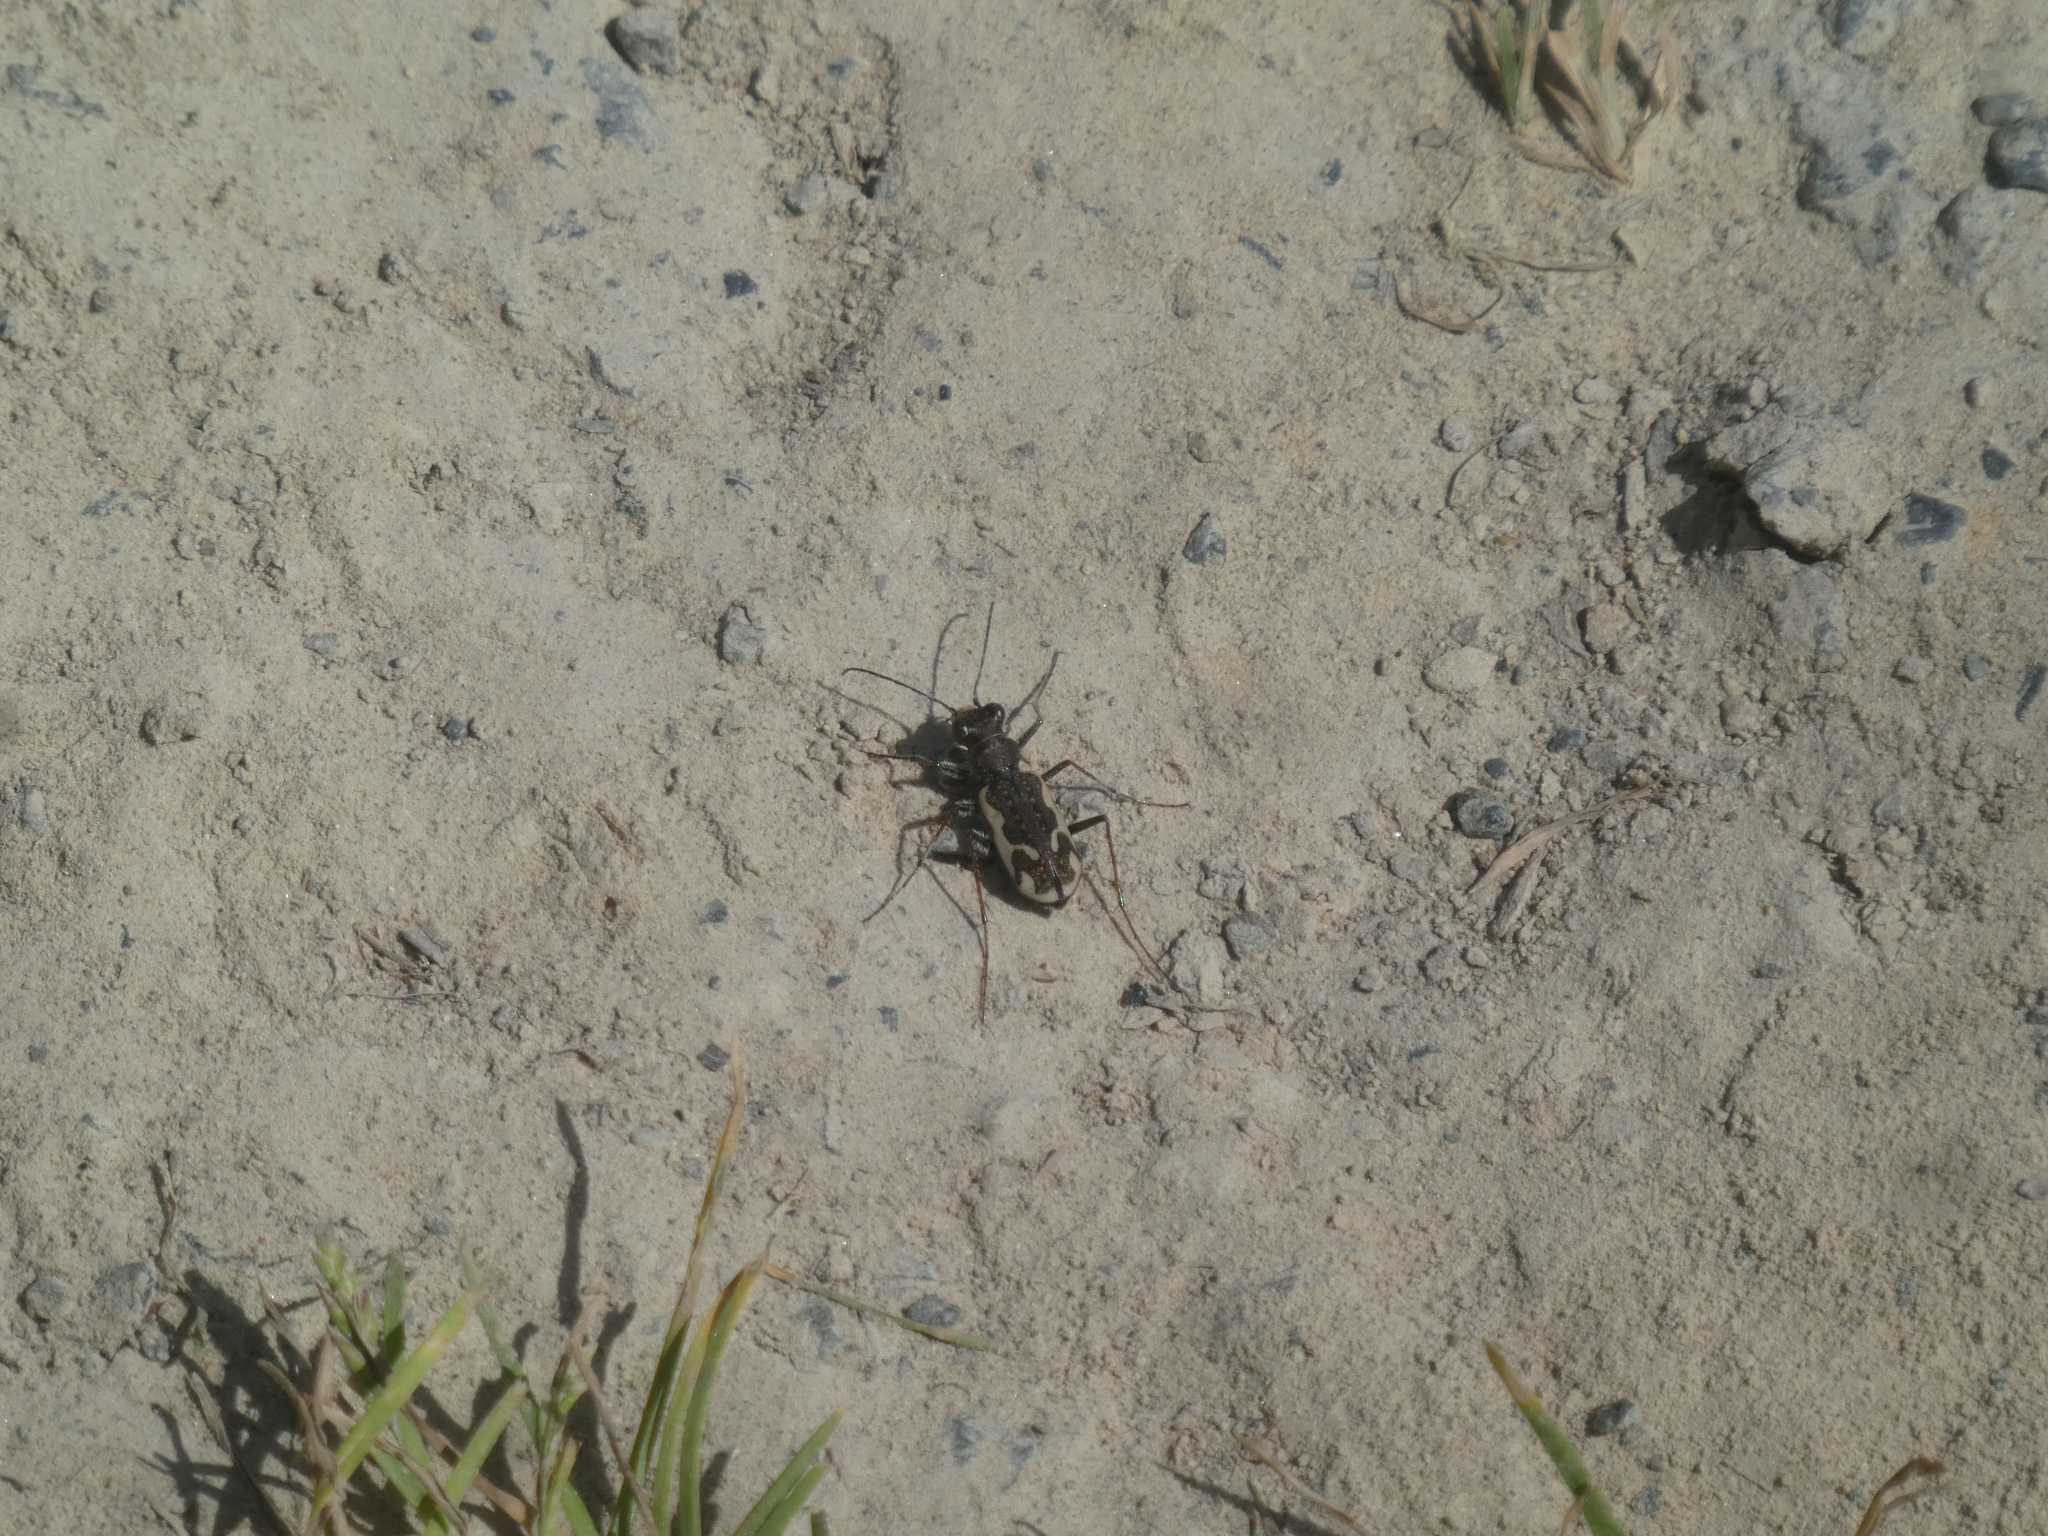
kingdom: Animalia
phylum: Arthropoda
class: Insecta
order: Coleoptera
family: Carabidae
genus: Neocicindela
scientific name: Neocicindela tuberculata
